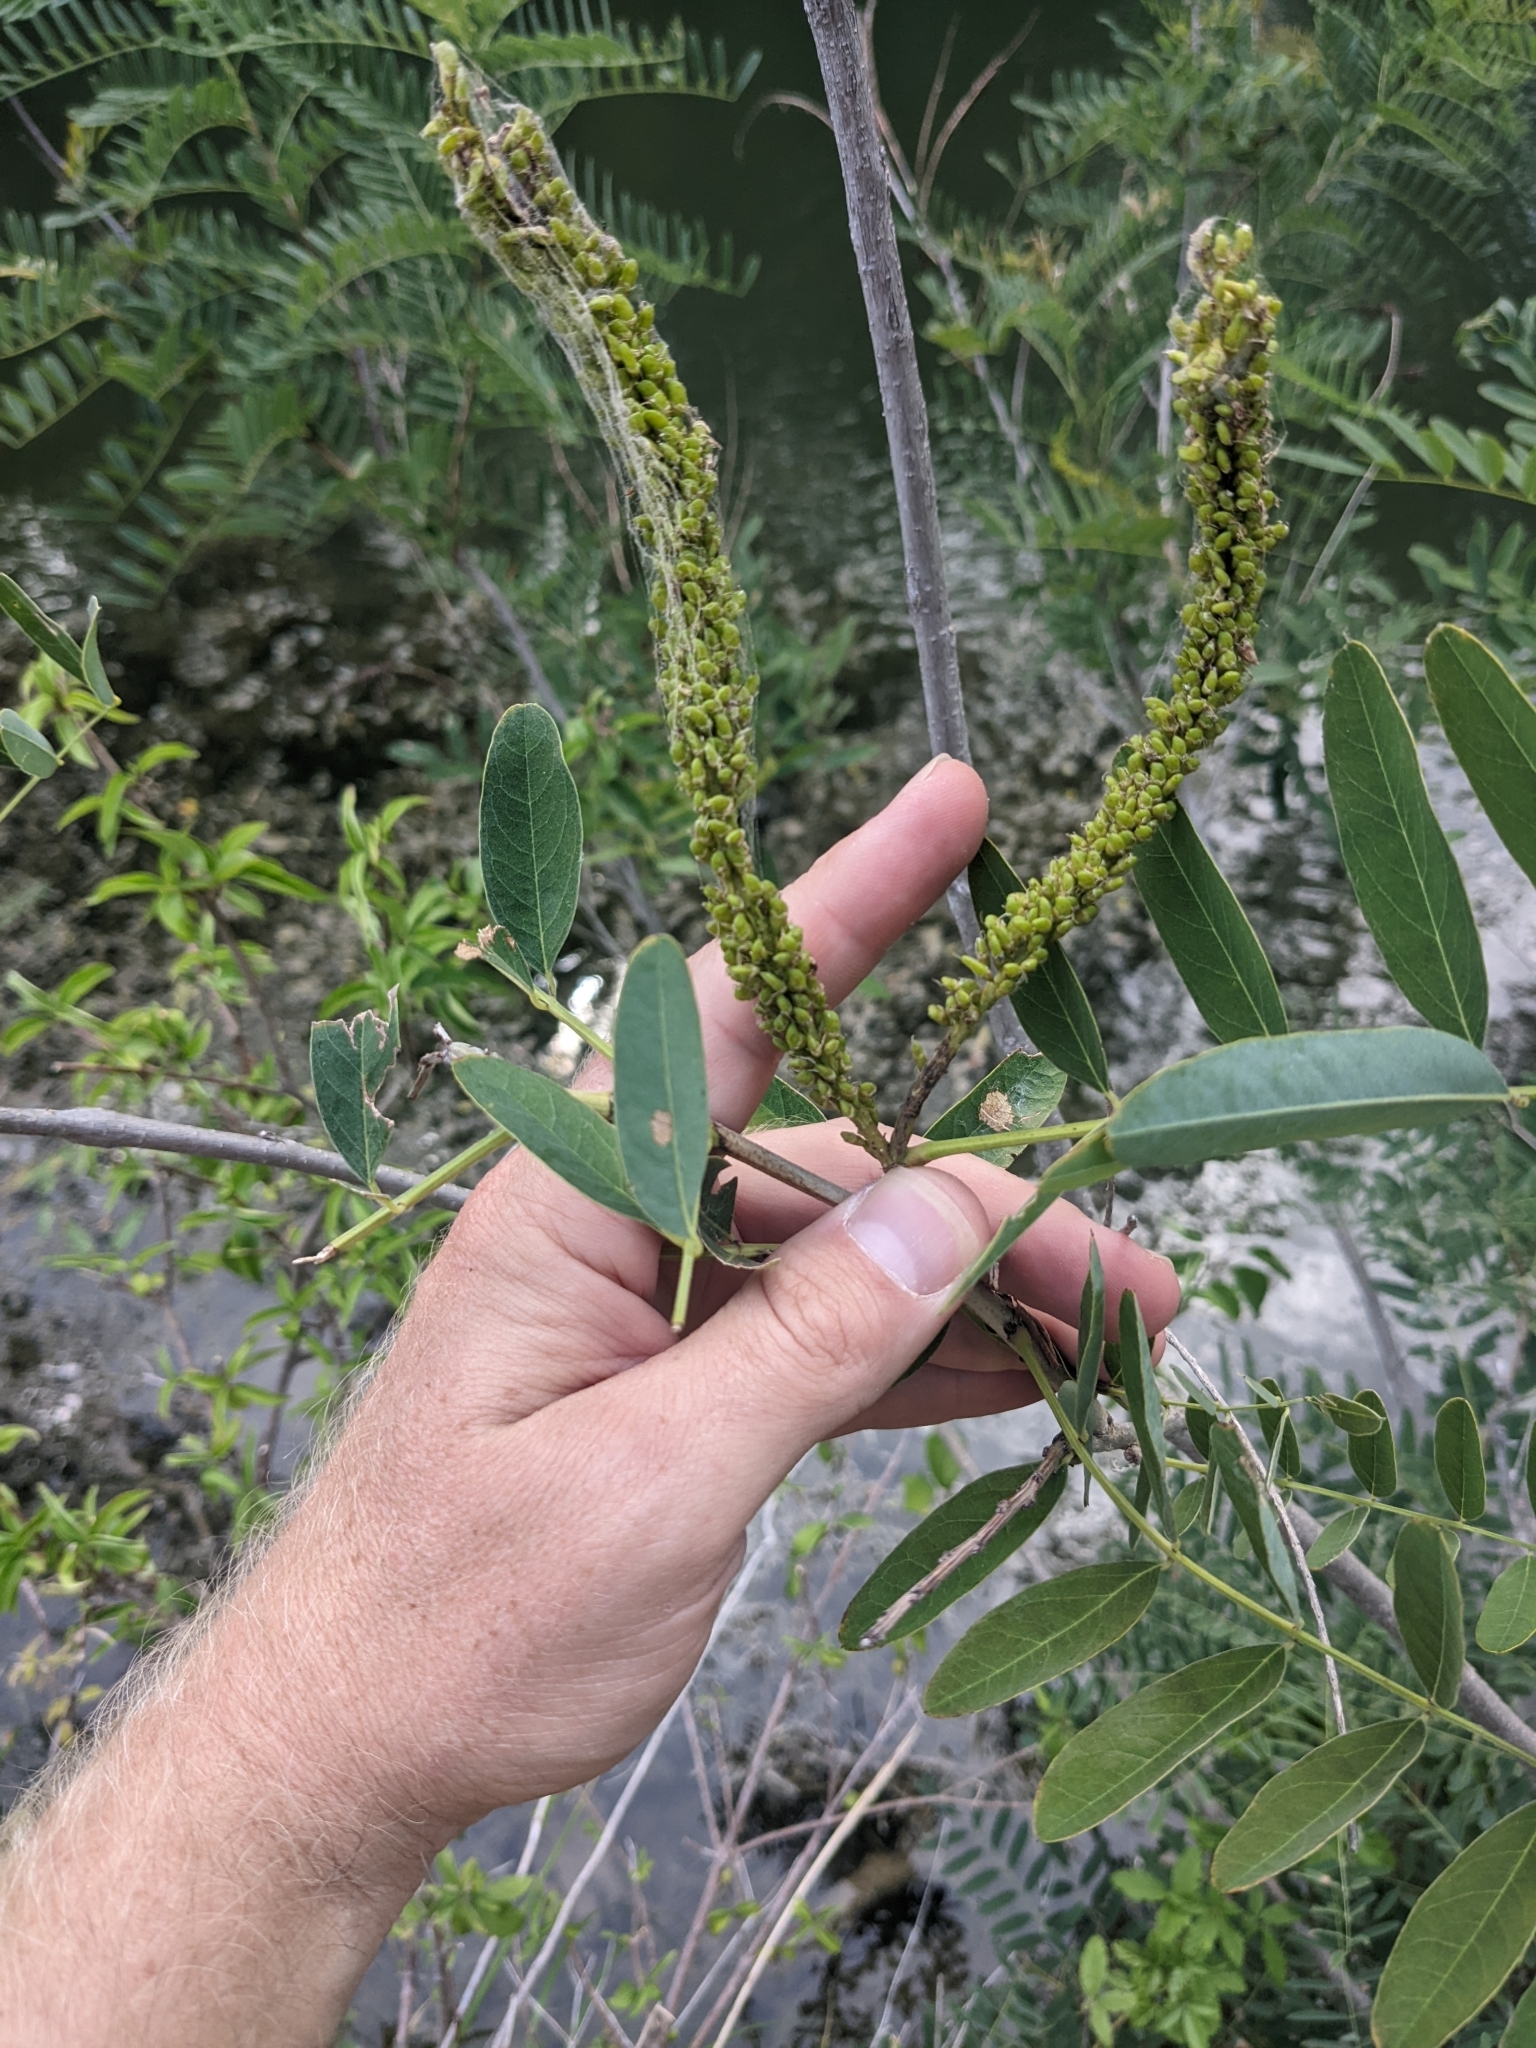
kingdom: Plantae
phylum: Tracheophyta
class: Magnoliopsida
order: Fabales
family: Fabaceae
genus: Amorpha
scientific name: Amorpha fruticosa
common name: False indigo
